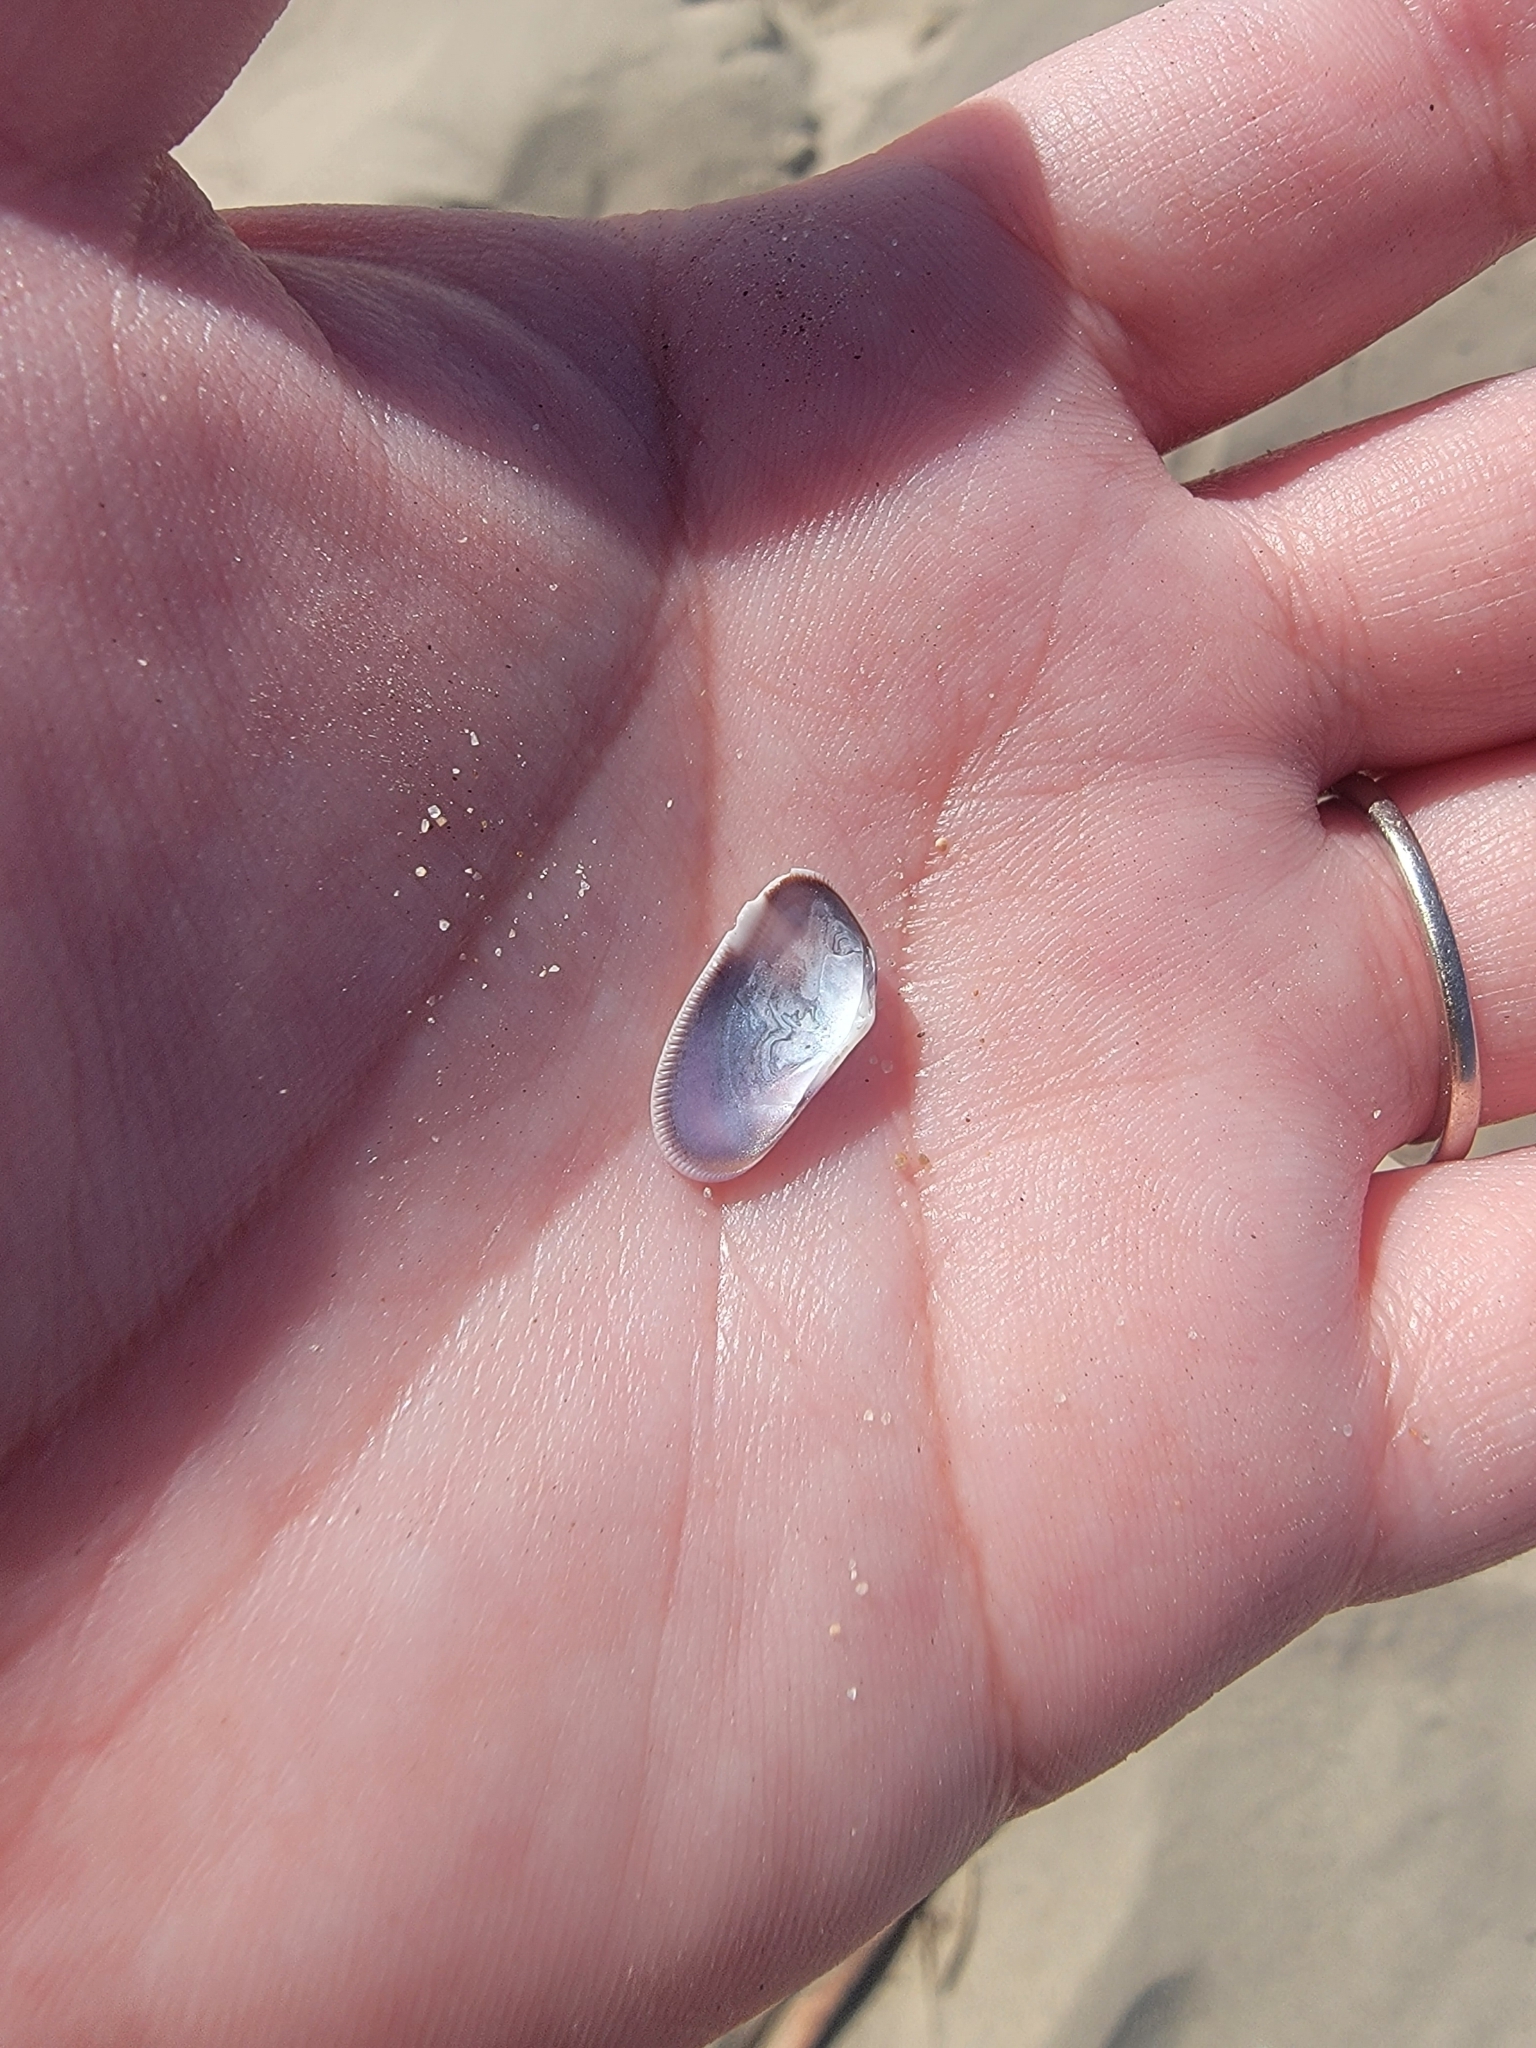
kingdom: Animalia
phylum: Mollusca
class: Bivalvia
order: Cardiida
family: Donacidae
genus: Donax
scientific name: Donax gouldii
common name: Gould beanclam
